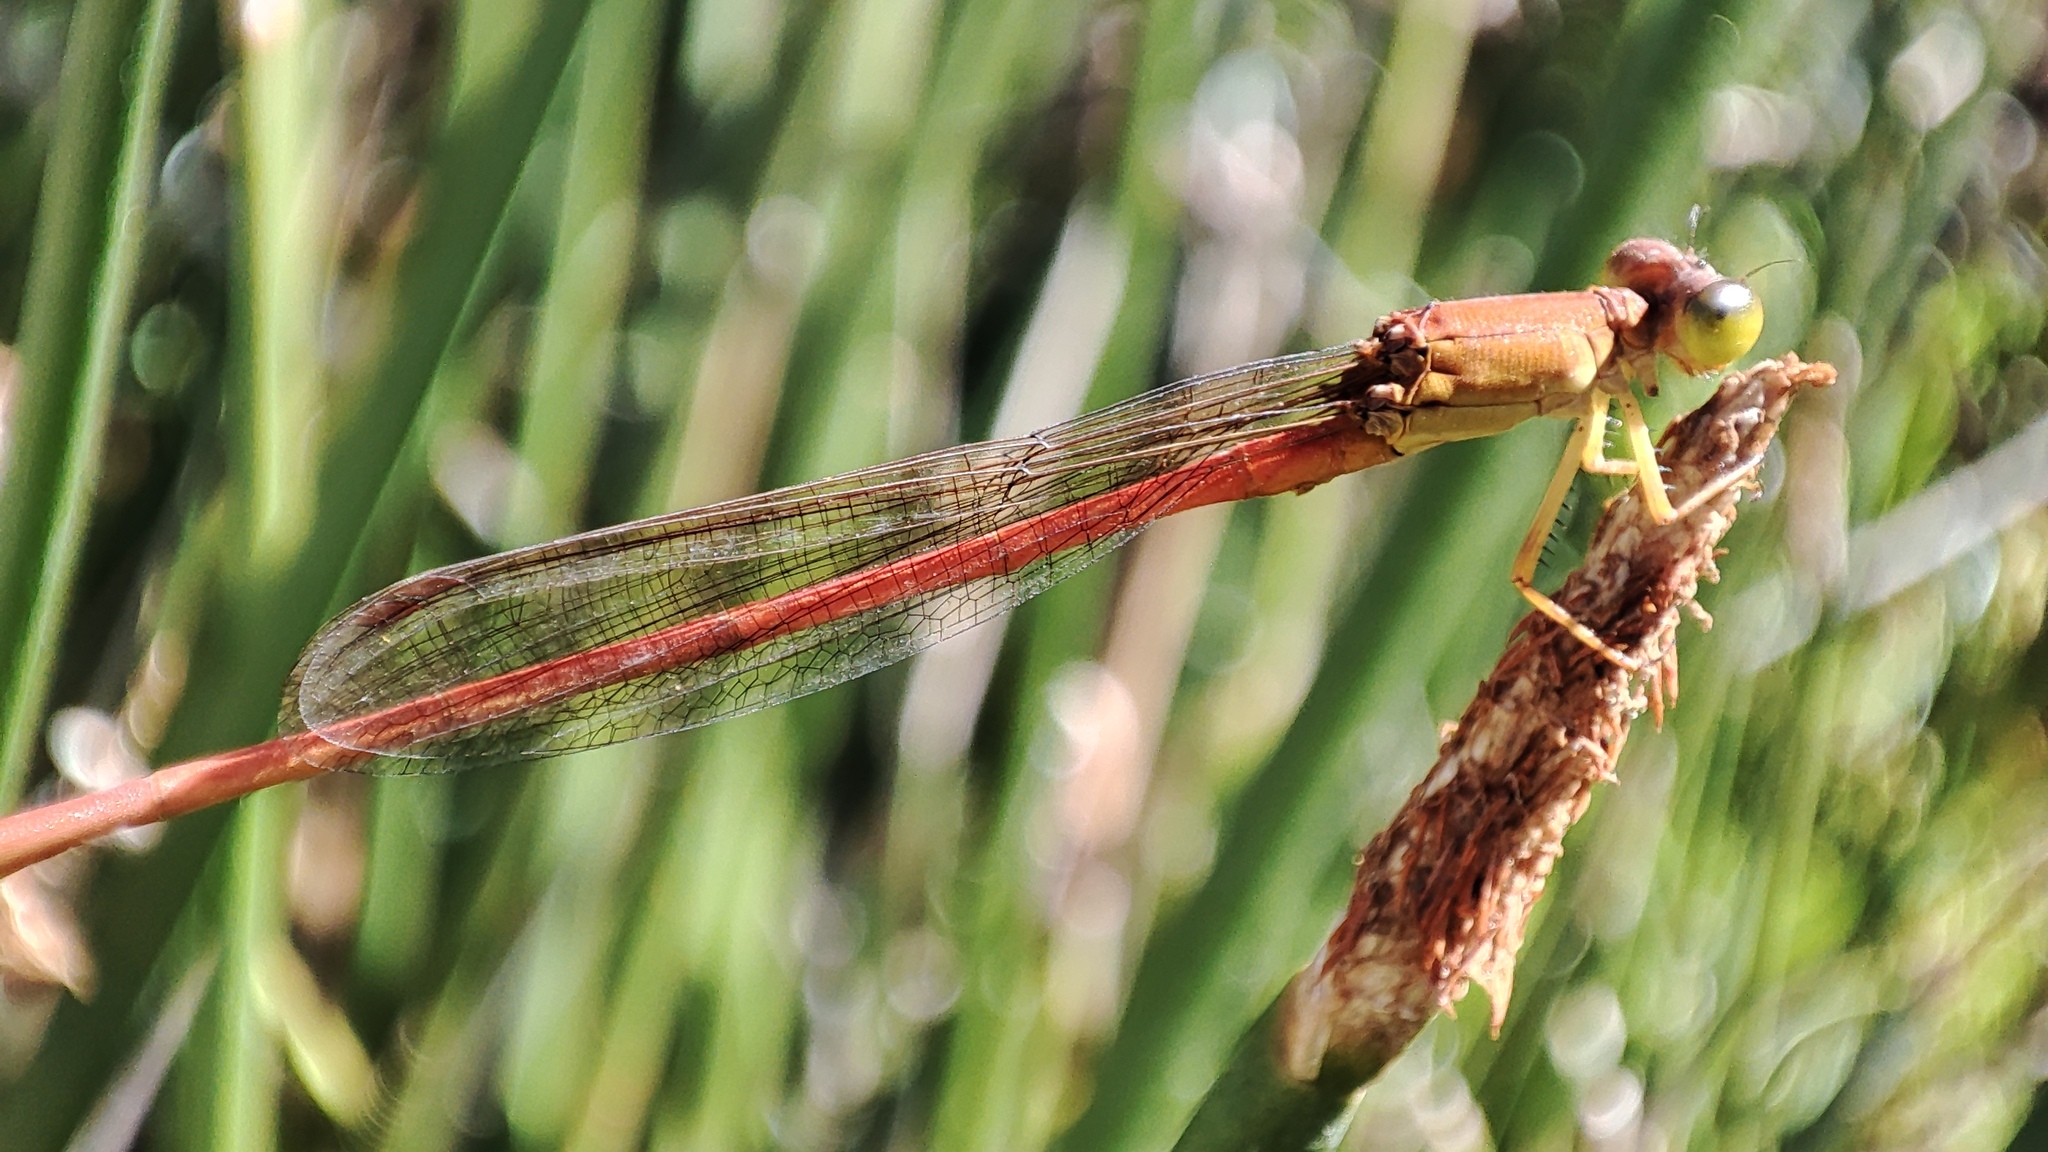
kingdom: Animalia
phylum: Arthropoda
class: Insecta
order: Odonata
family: Coenagrionidae
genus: Ceriagrion
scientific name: Ceriagrion glabrum
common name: Common pond damsel
